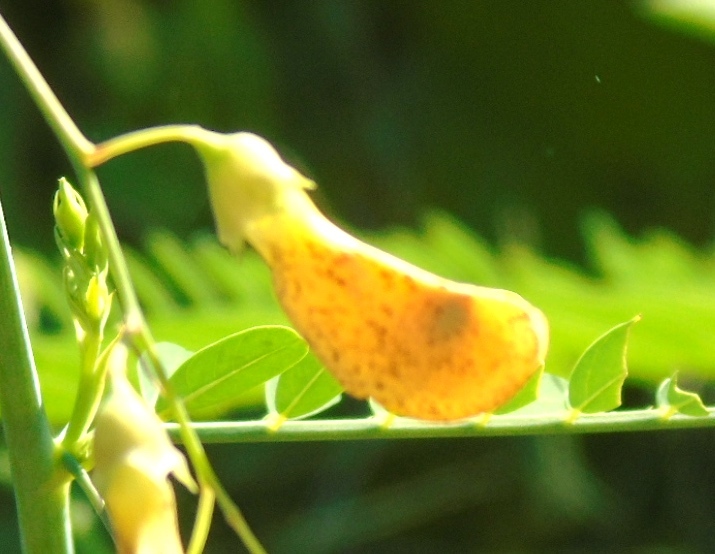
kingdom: Plantae
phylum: Tracheophyta
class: Magnoliopsida
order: Fabales
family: Fabaceae
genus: Sesbania
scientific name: Sesbania herbacea
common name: Bigpod sesbania
